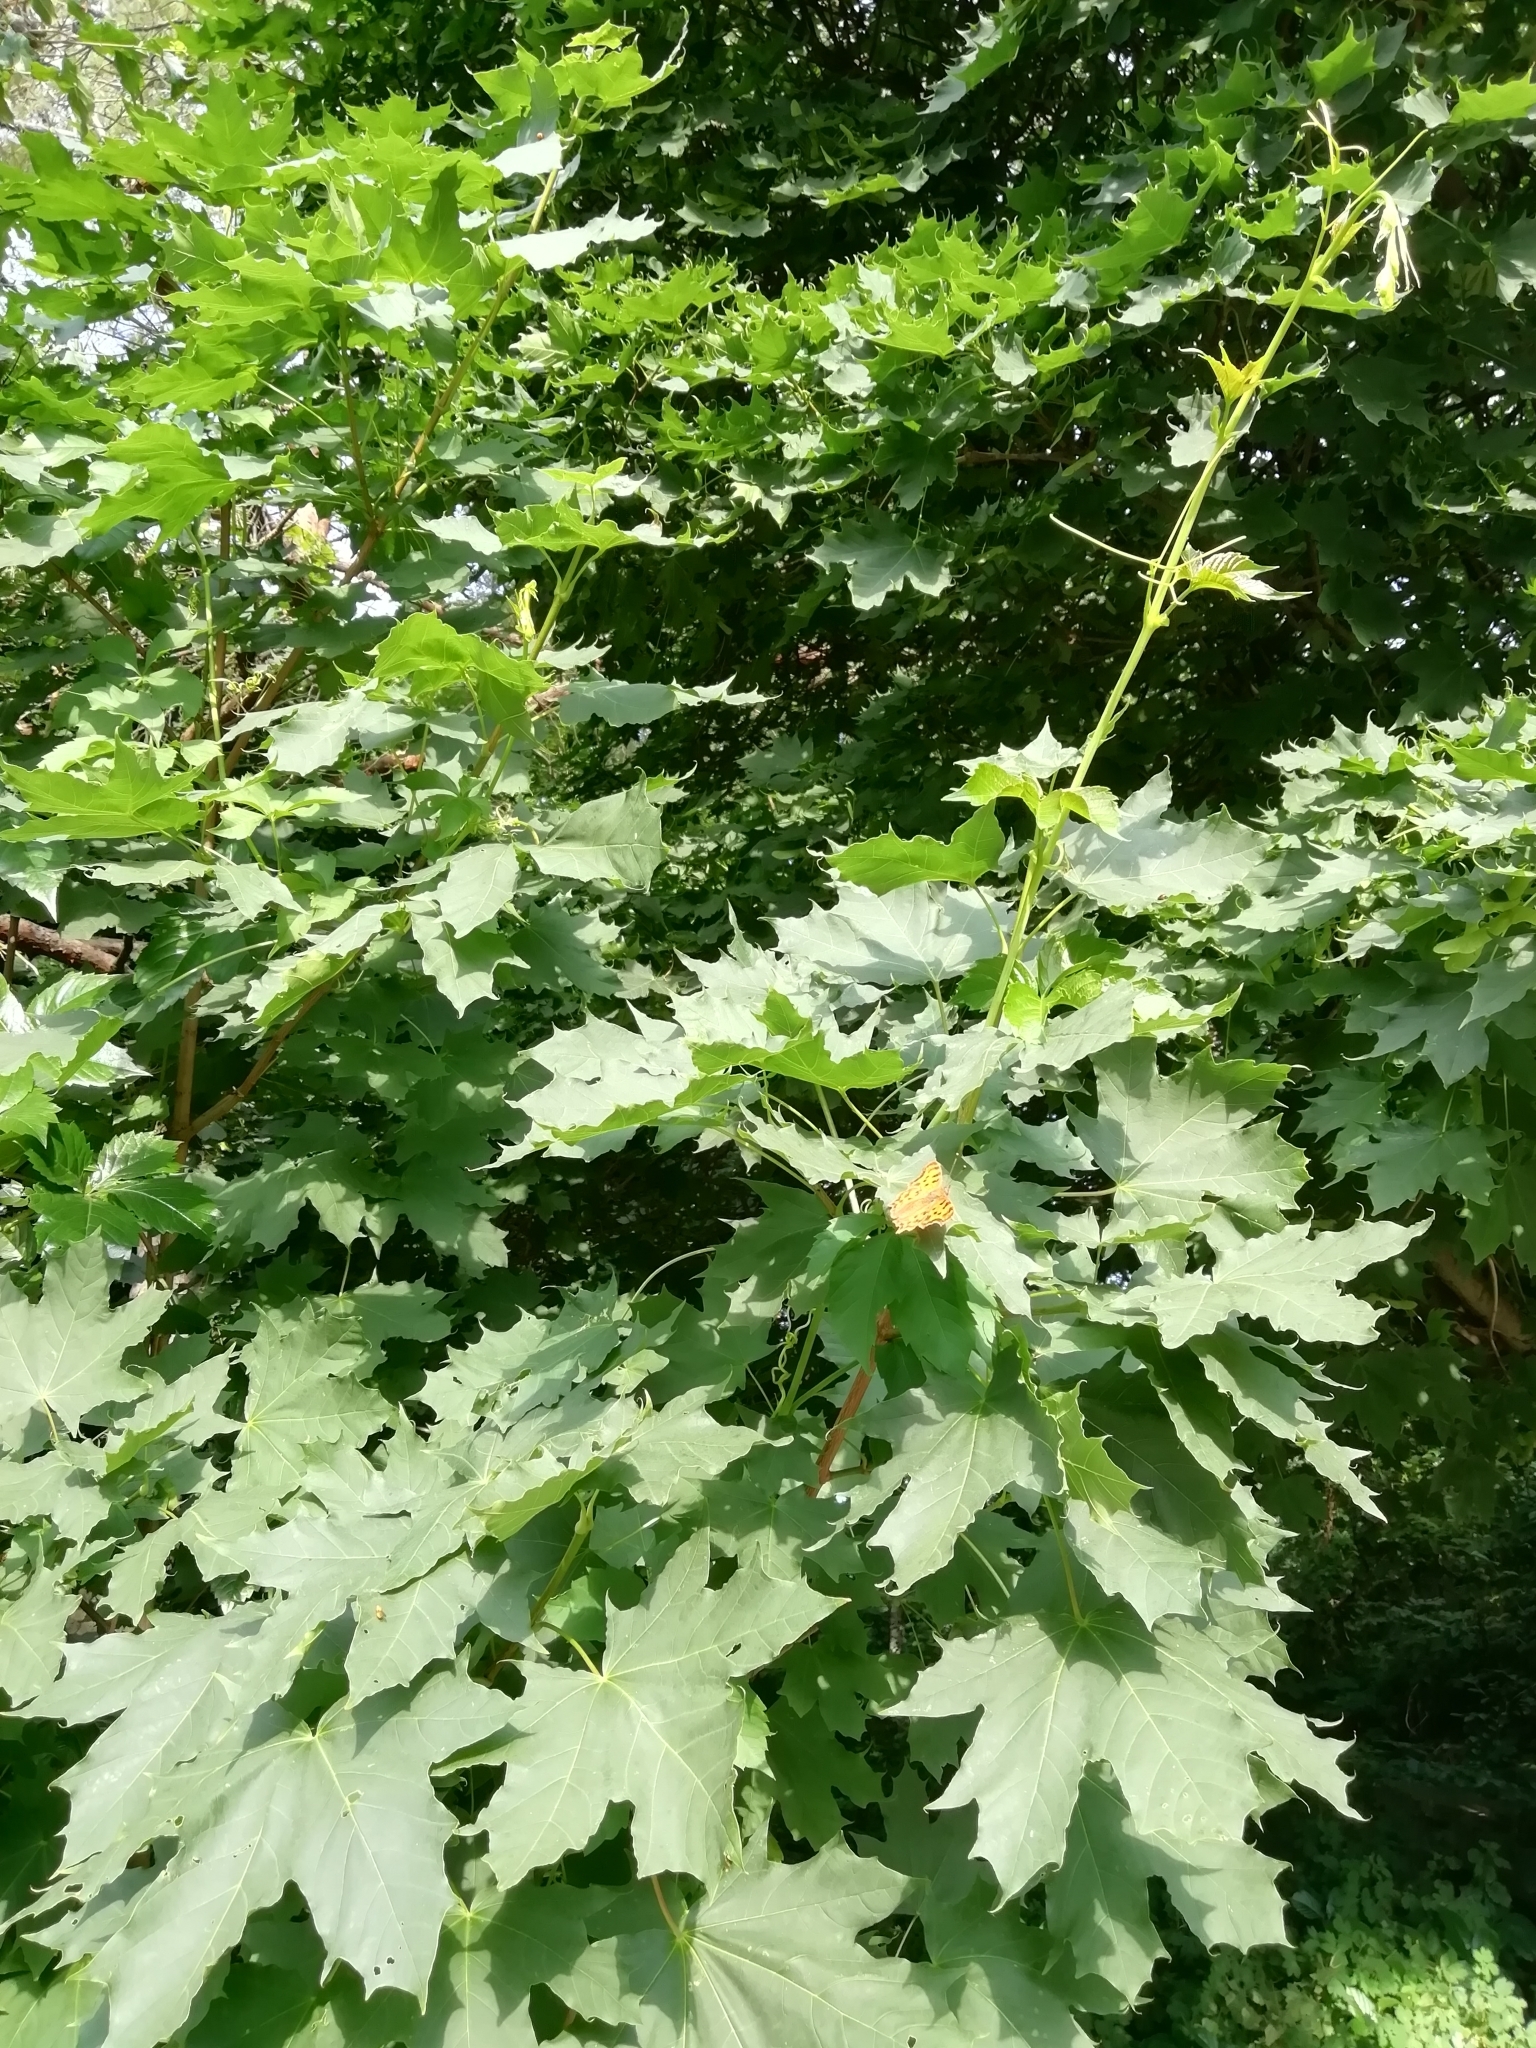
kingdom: Animalia
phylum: Arthropoda
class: Insecta
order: Lepidoptera
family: Nymphalidae
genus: Polygonia
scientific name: Polygonia c-album
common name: Comma
